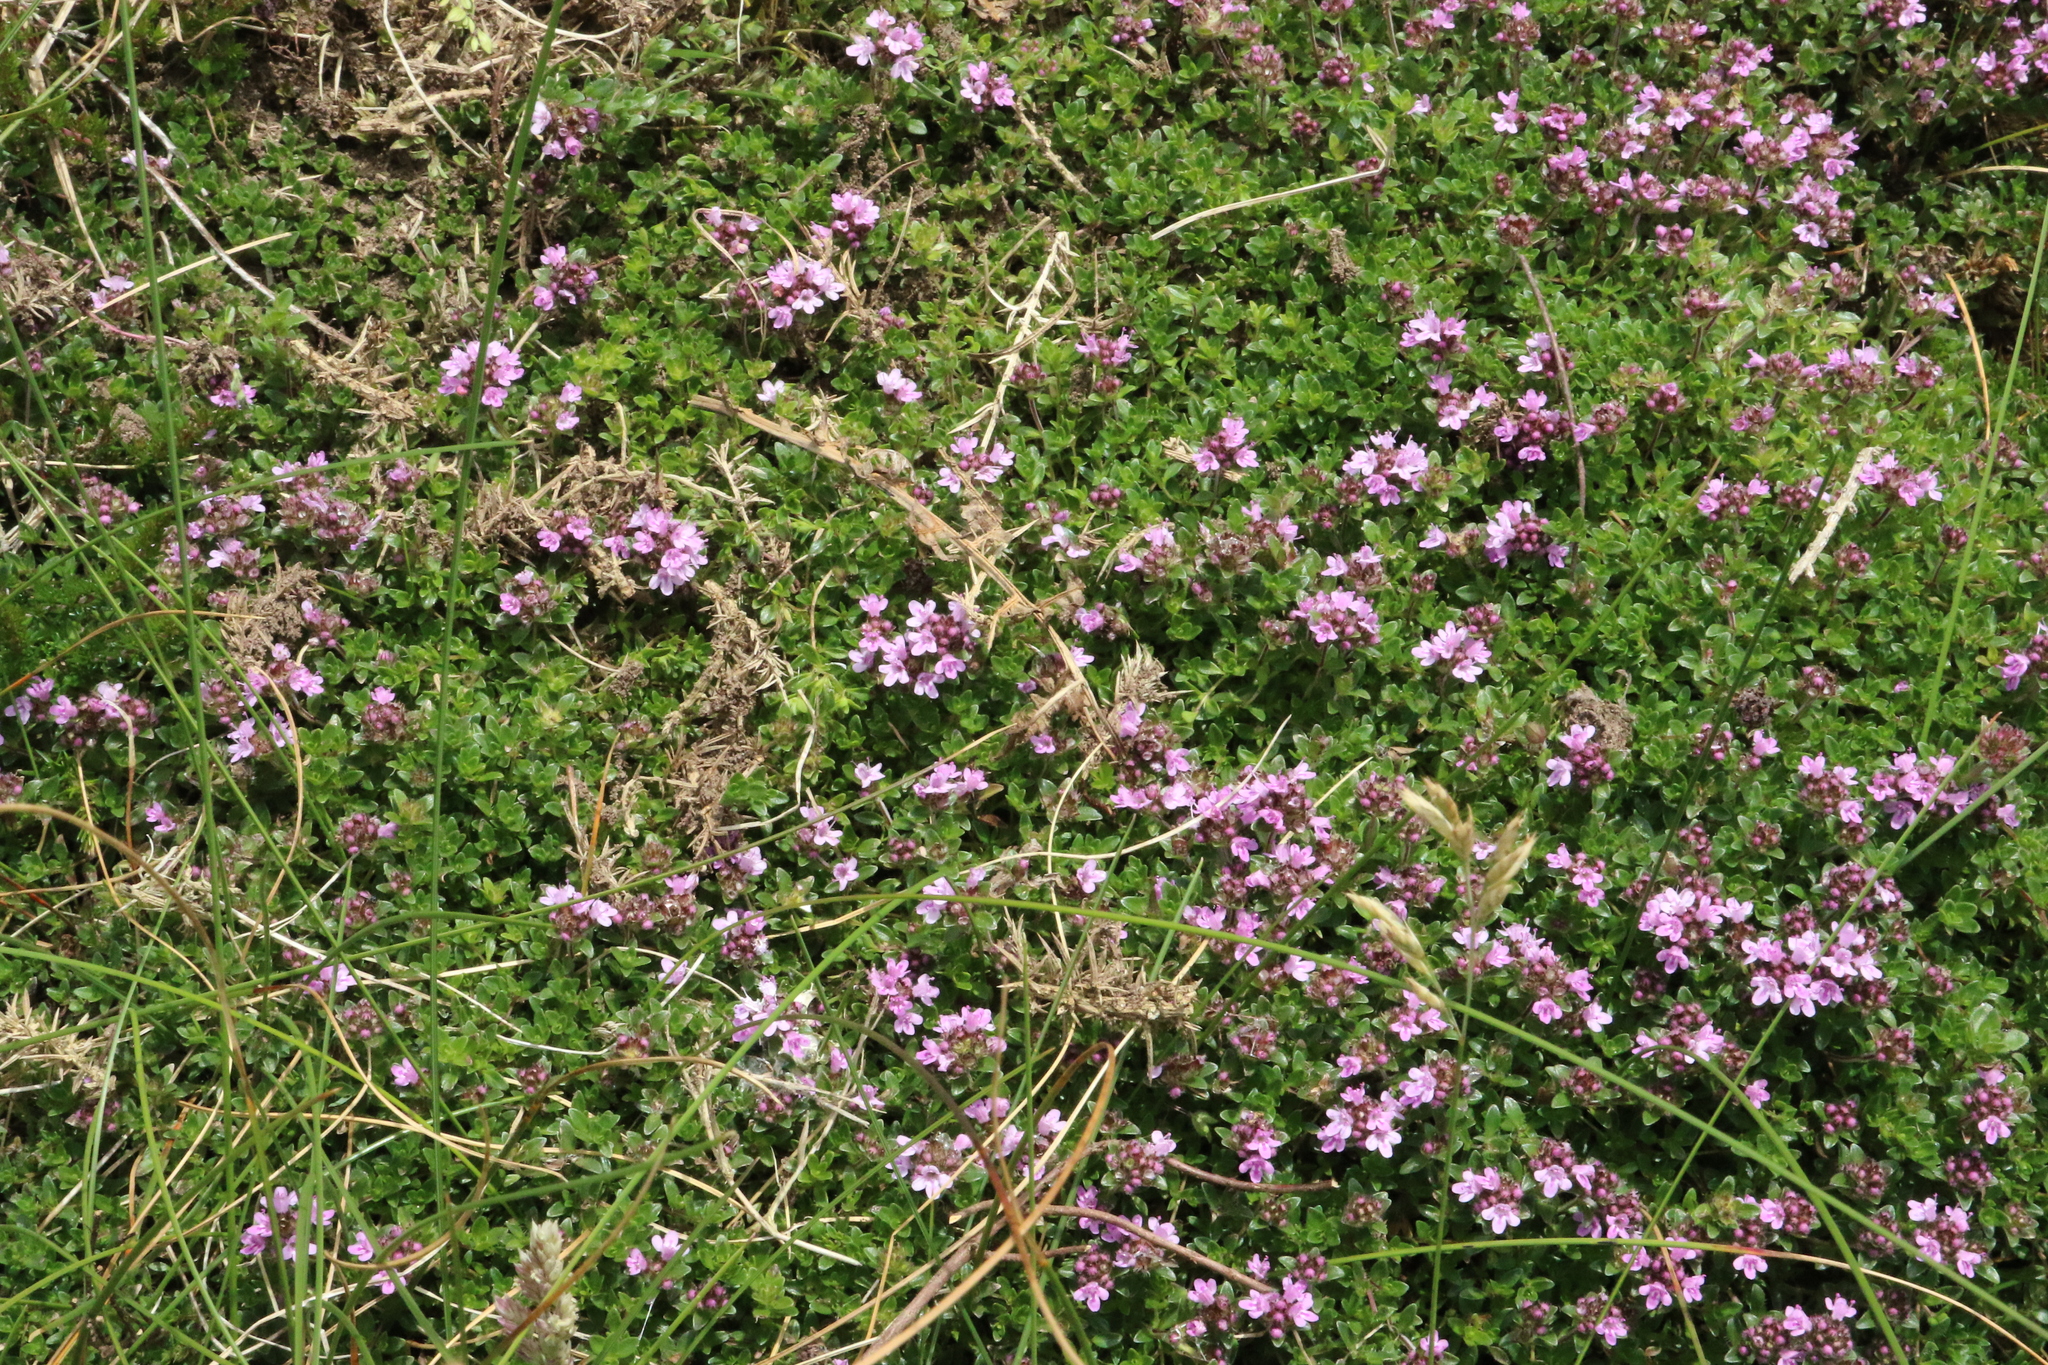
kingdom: Plantae
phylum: Tracheophyta
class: Magnoliopsida
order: Lamiales
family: Lamiaceae
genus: Thymus
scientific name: Thymus praecox
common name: Wild thyme
